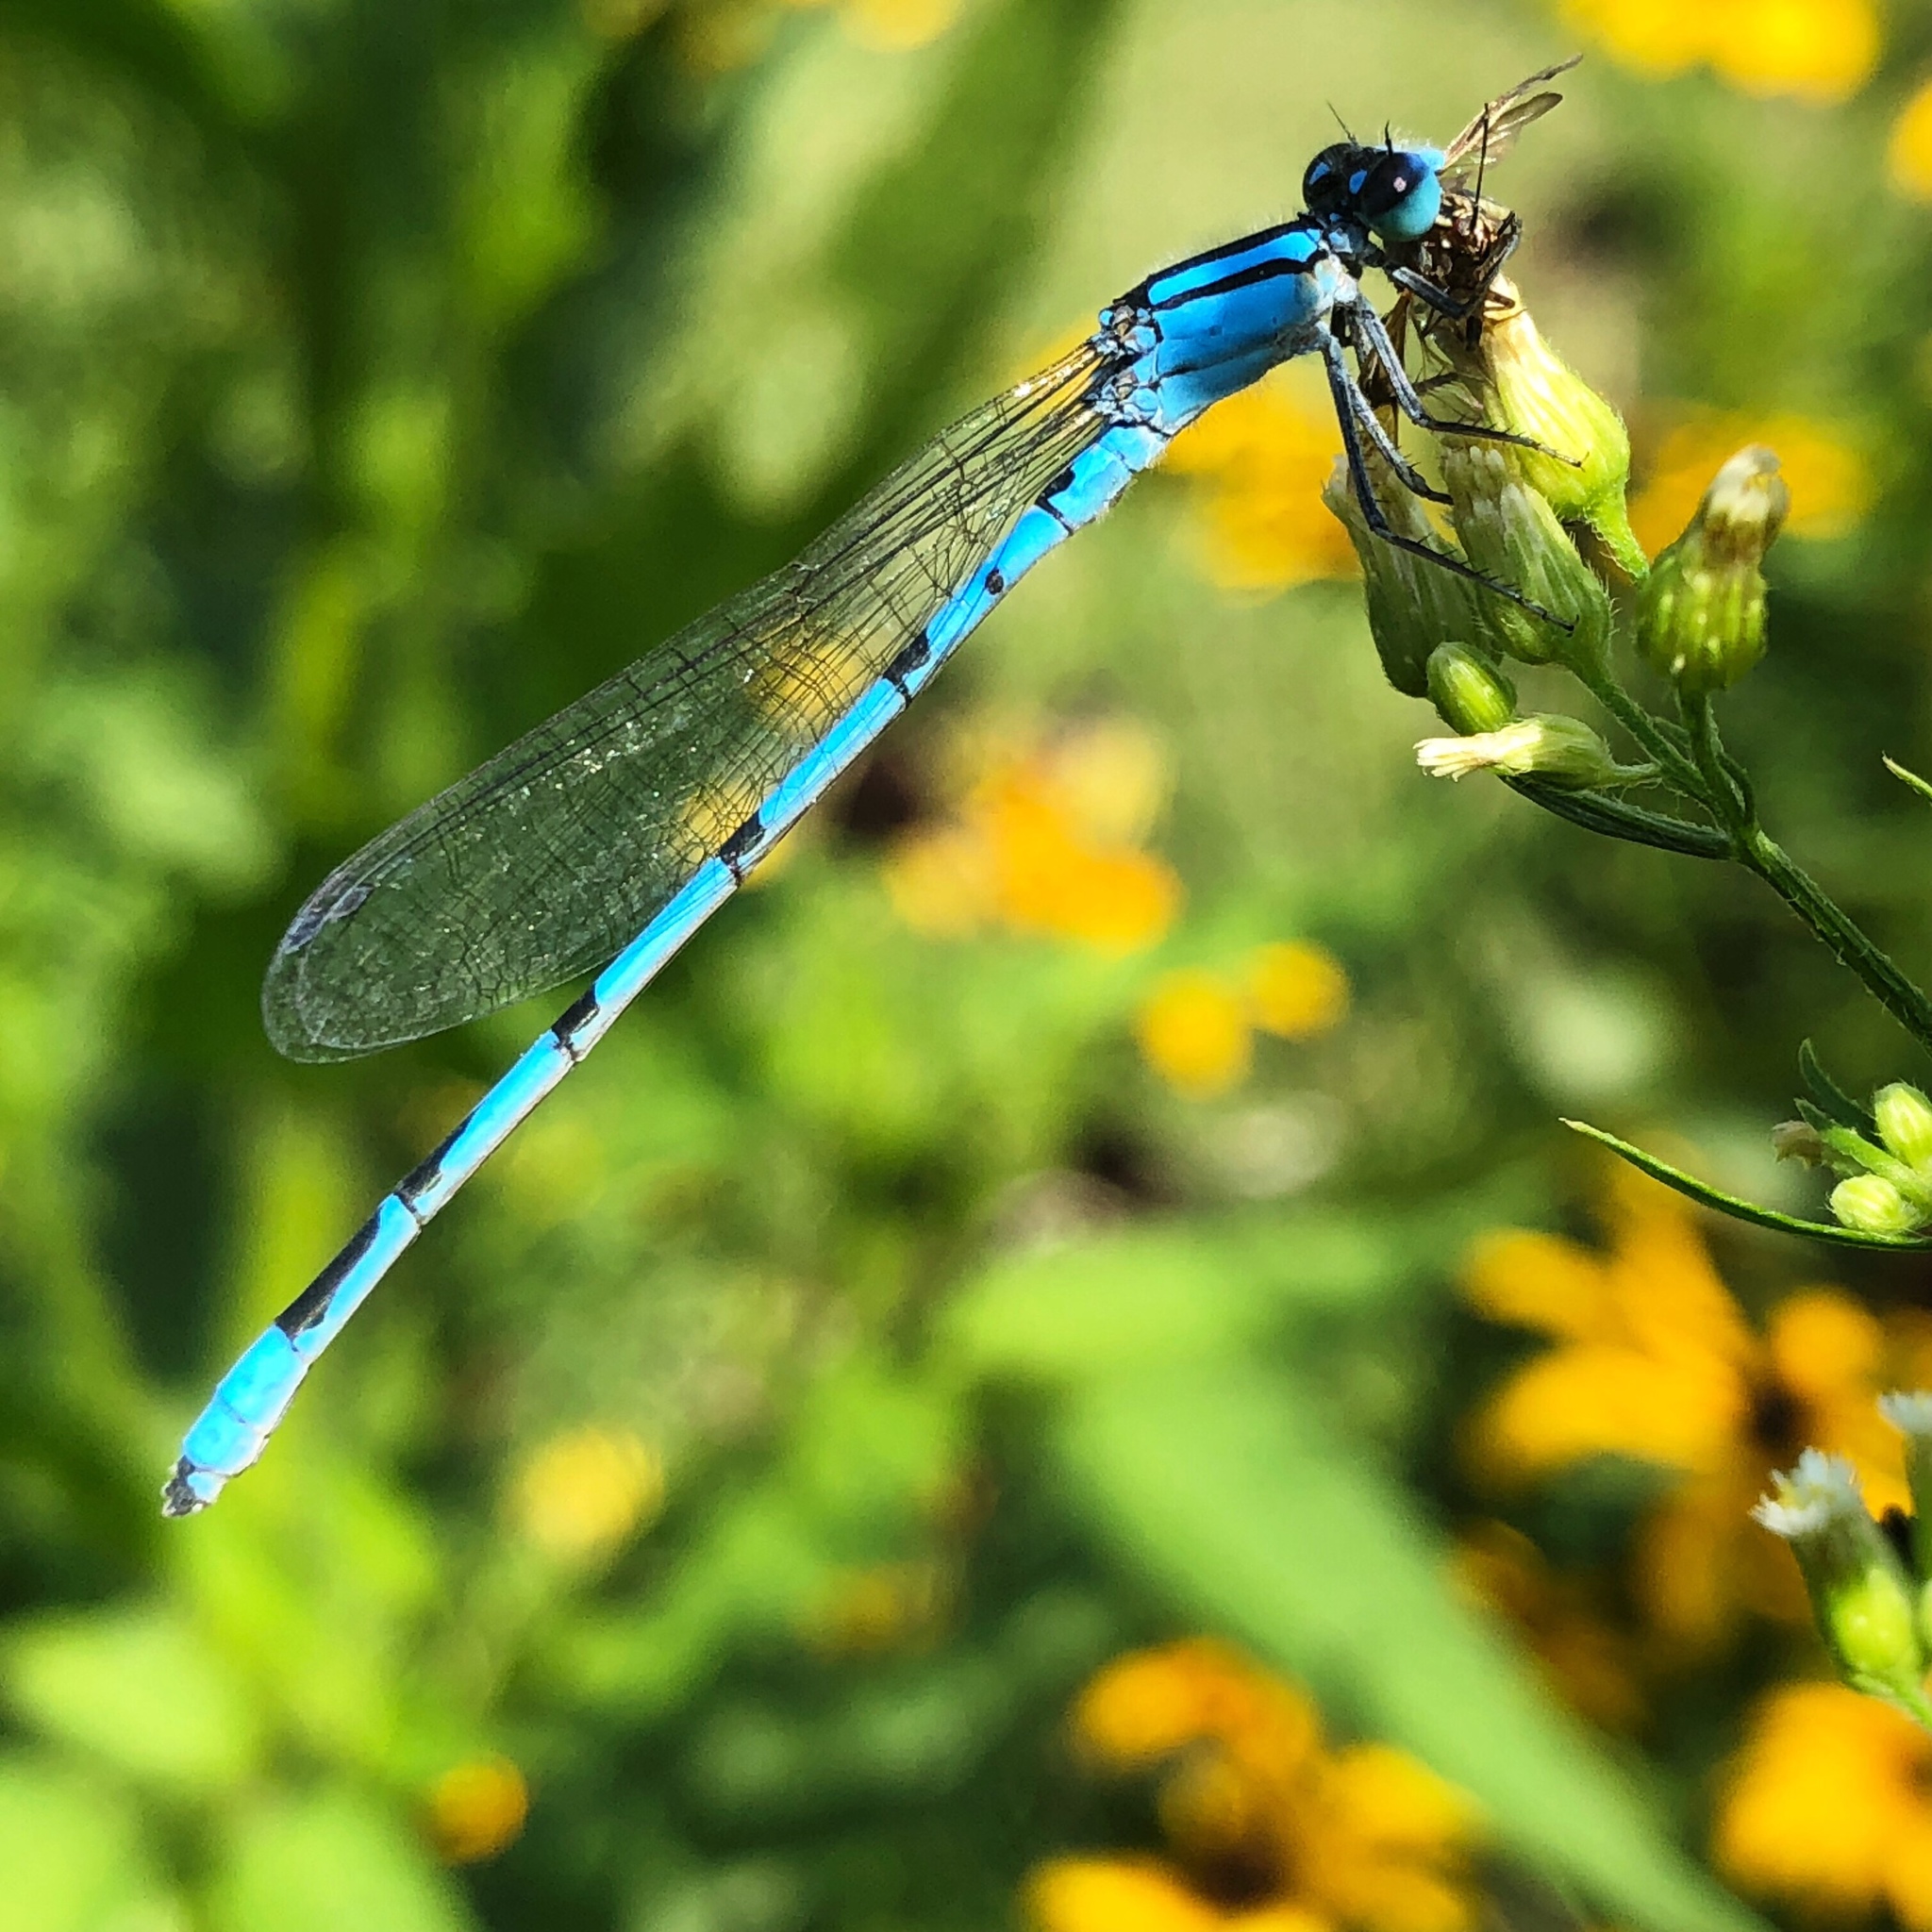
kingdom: Animalia
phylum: Arthropoda
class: Insecta
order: Odonata
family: Coenagrionidae
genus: Enallagma
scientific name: Enallagma civile
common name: Damselfly
